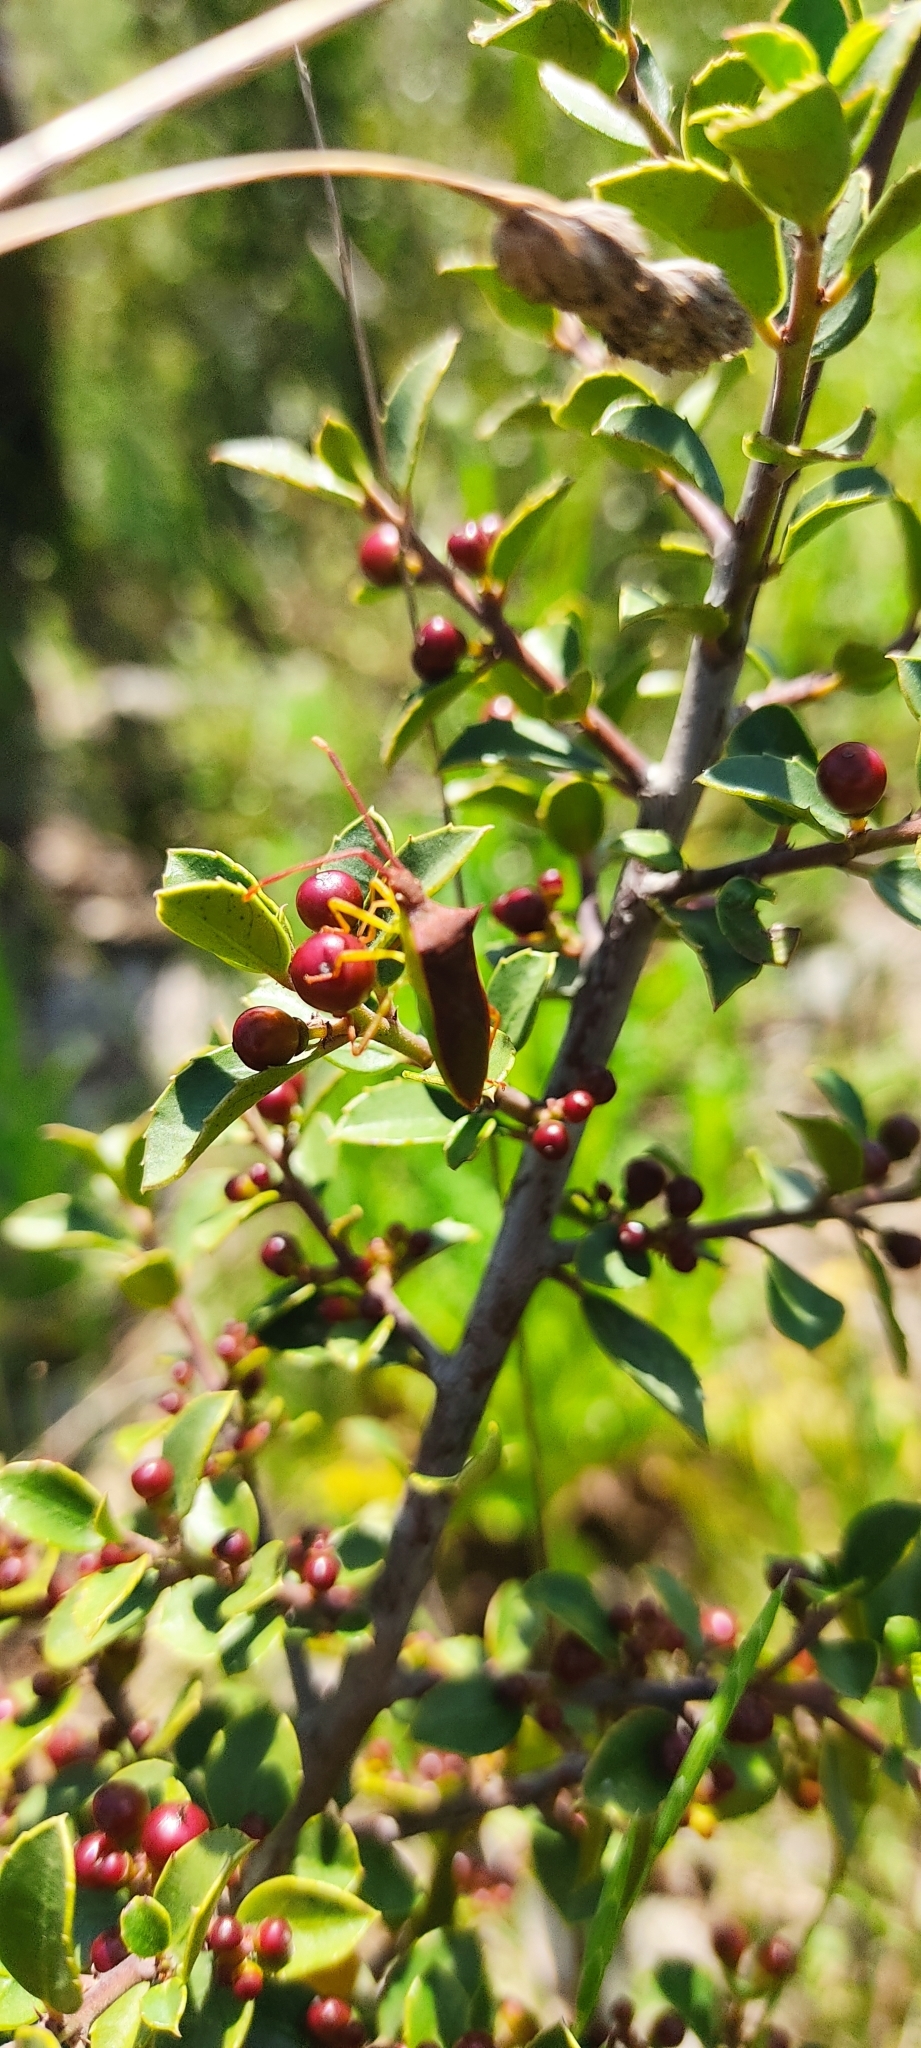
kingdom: Animalia
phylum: Arthropoda
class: Insecta
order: Hemiptera
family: Coreidae
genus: Gonocerus
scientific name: Gonocerus insidiator
